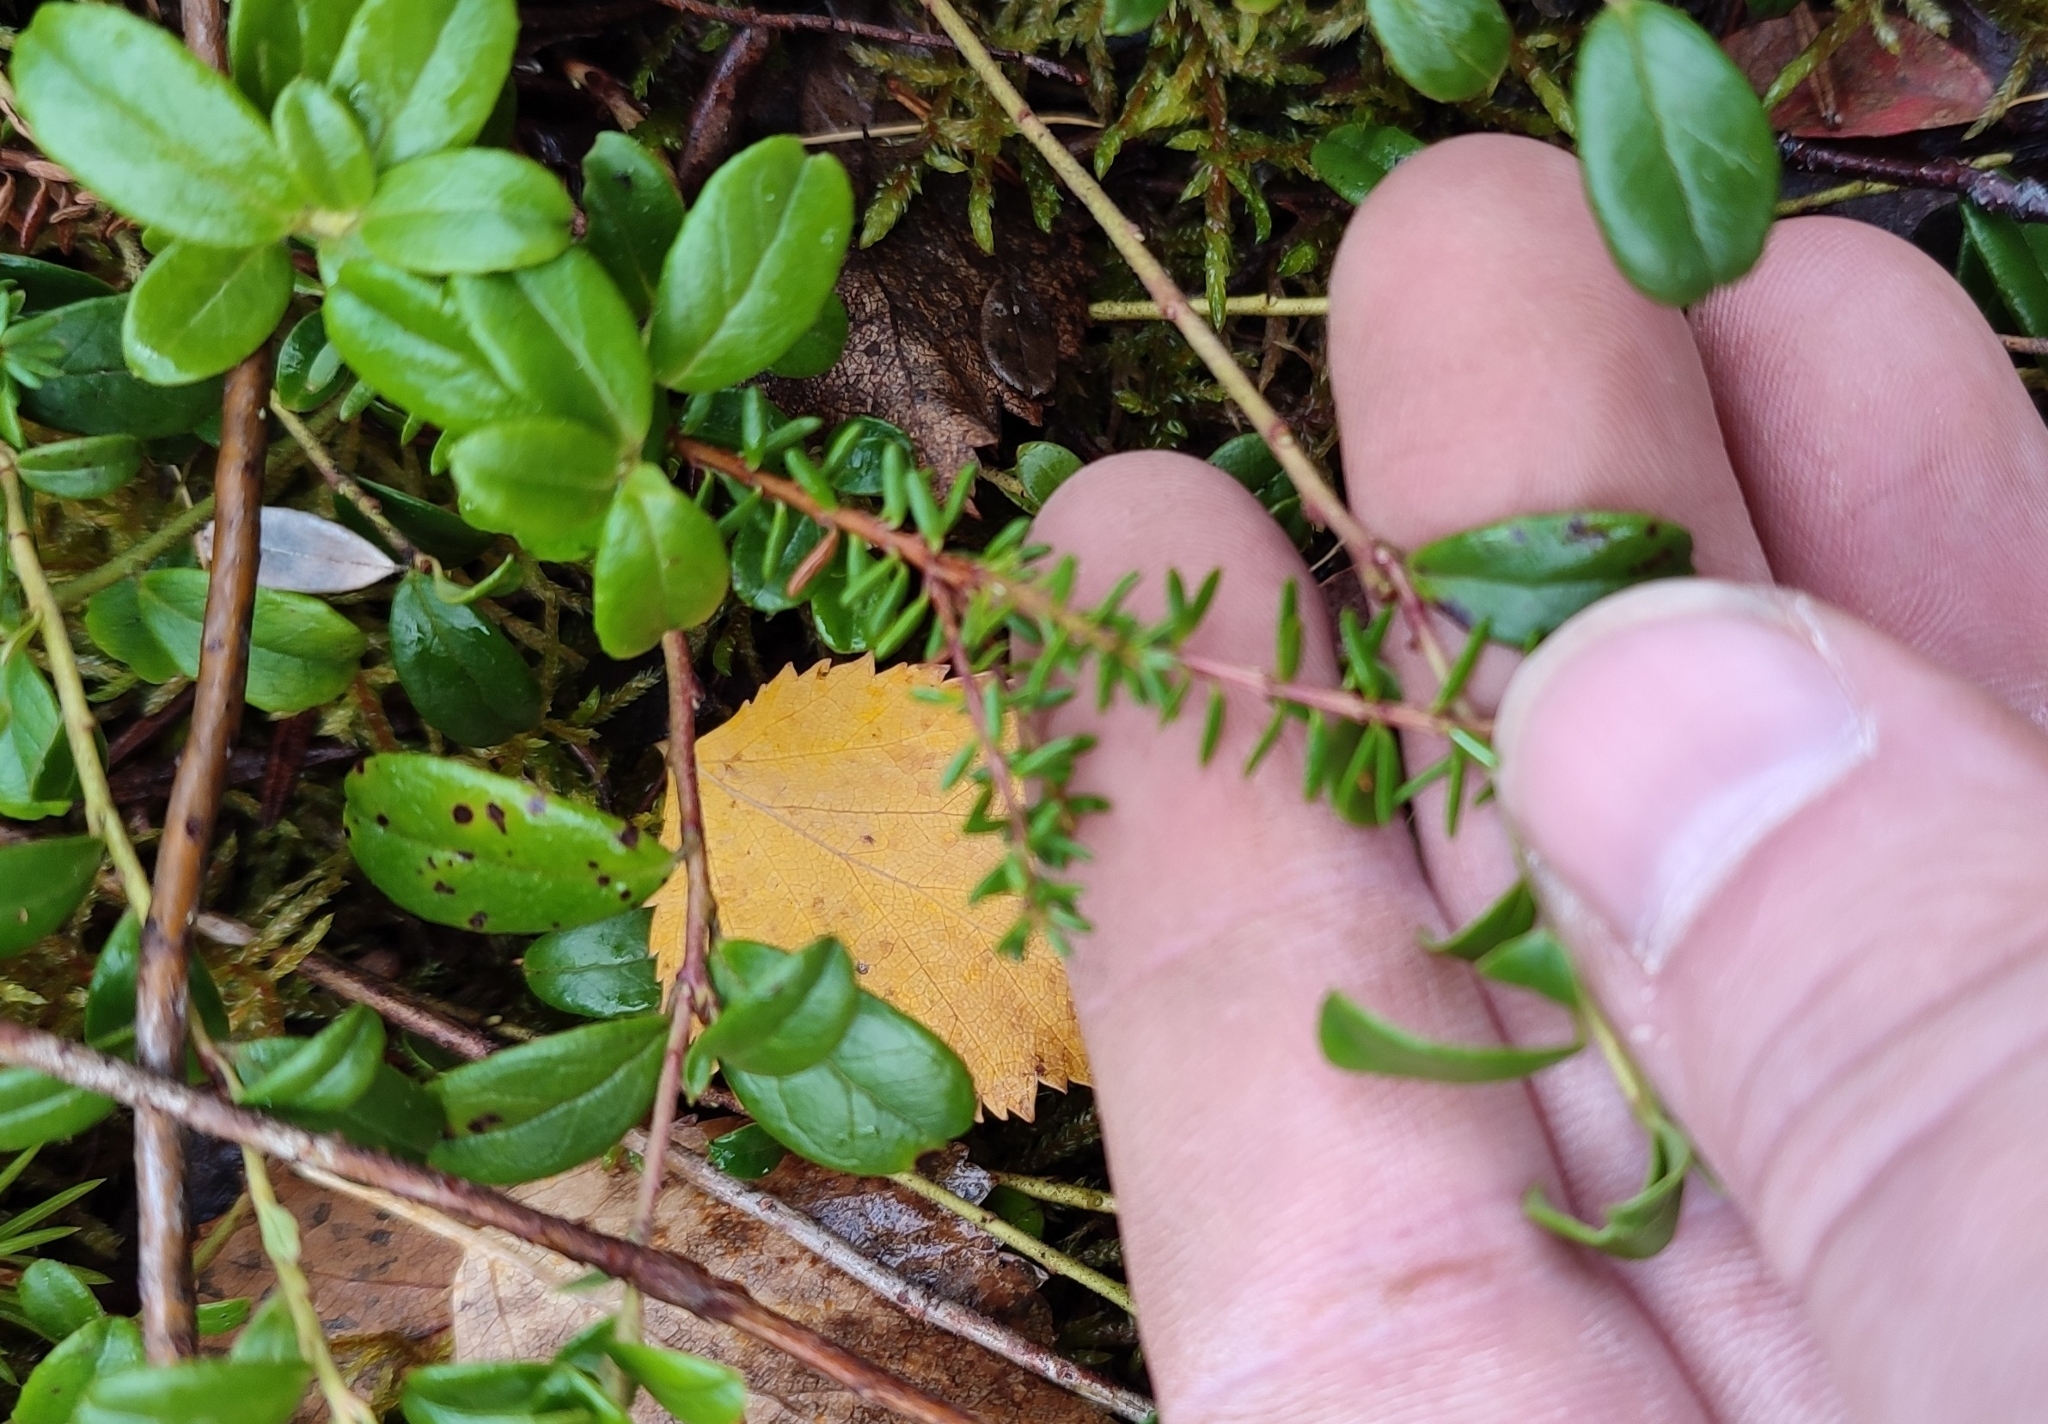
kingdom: Plantae
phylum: Tracheophyta
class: Magnoliopsida
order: Ericales
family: Ericaceae
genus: Empetrum
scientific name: Empetrum nigrum
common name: Black crowberry
